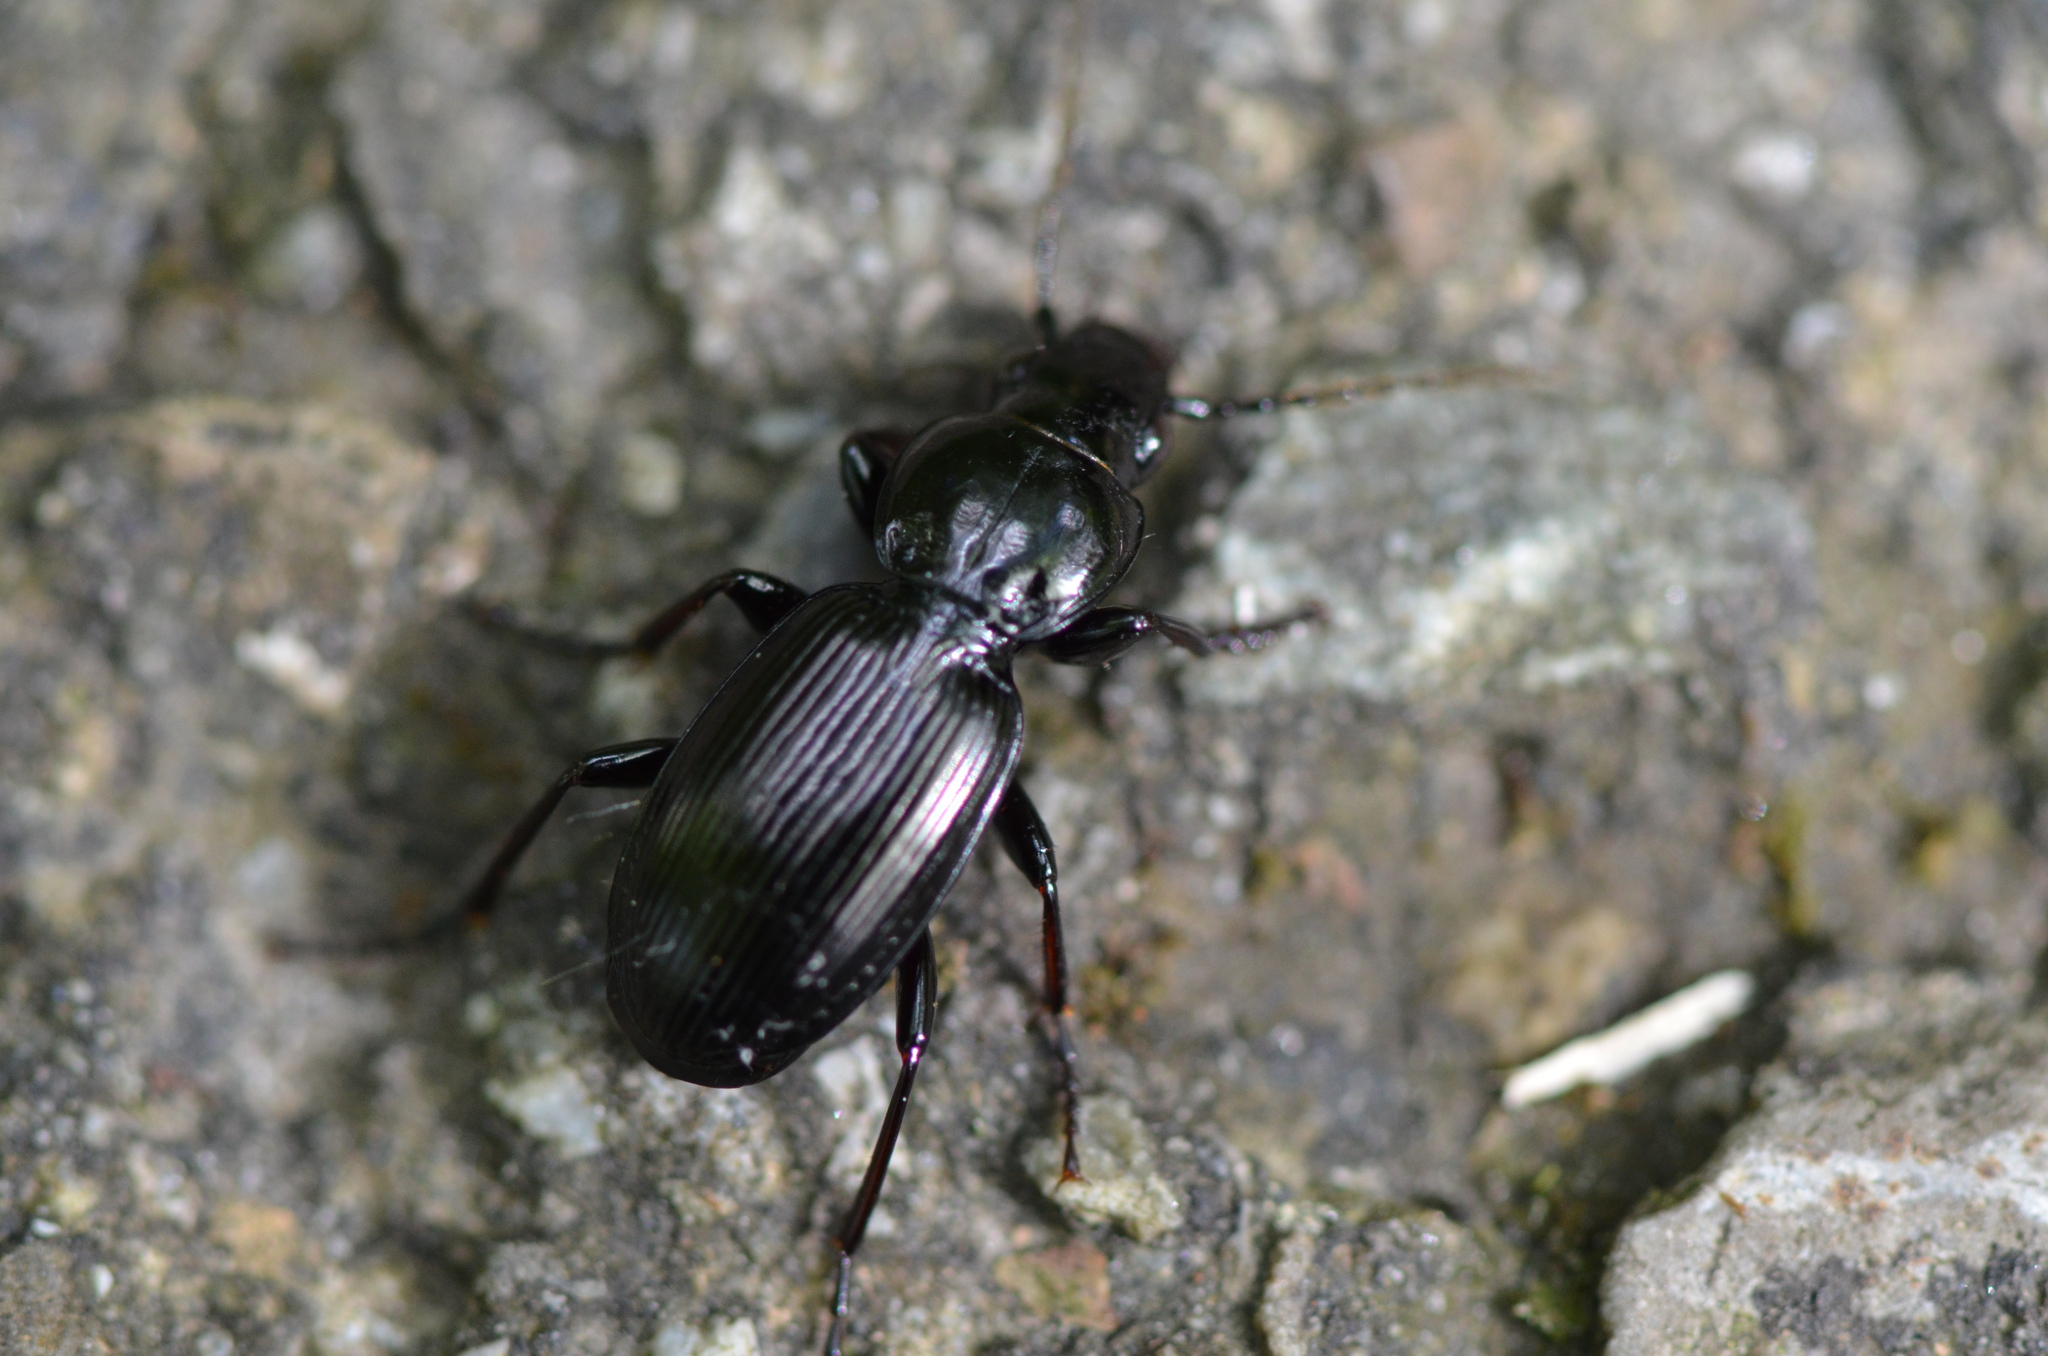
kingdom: Animalia
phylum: Arthropoda
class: Insecta
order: Coleoptera
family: Carabidae
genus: Pterostichus
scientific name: Pterostichus madidus
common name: Black clock
